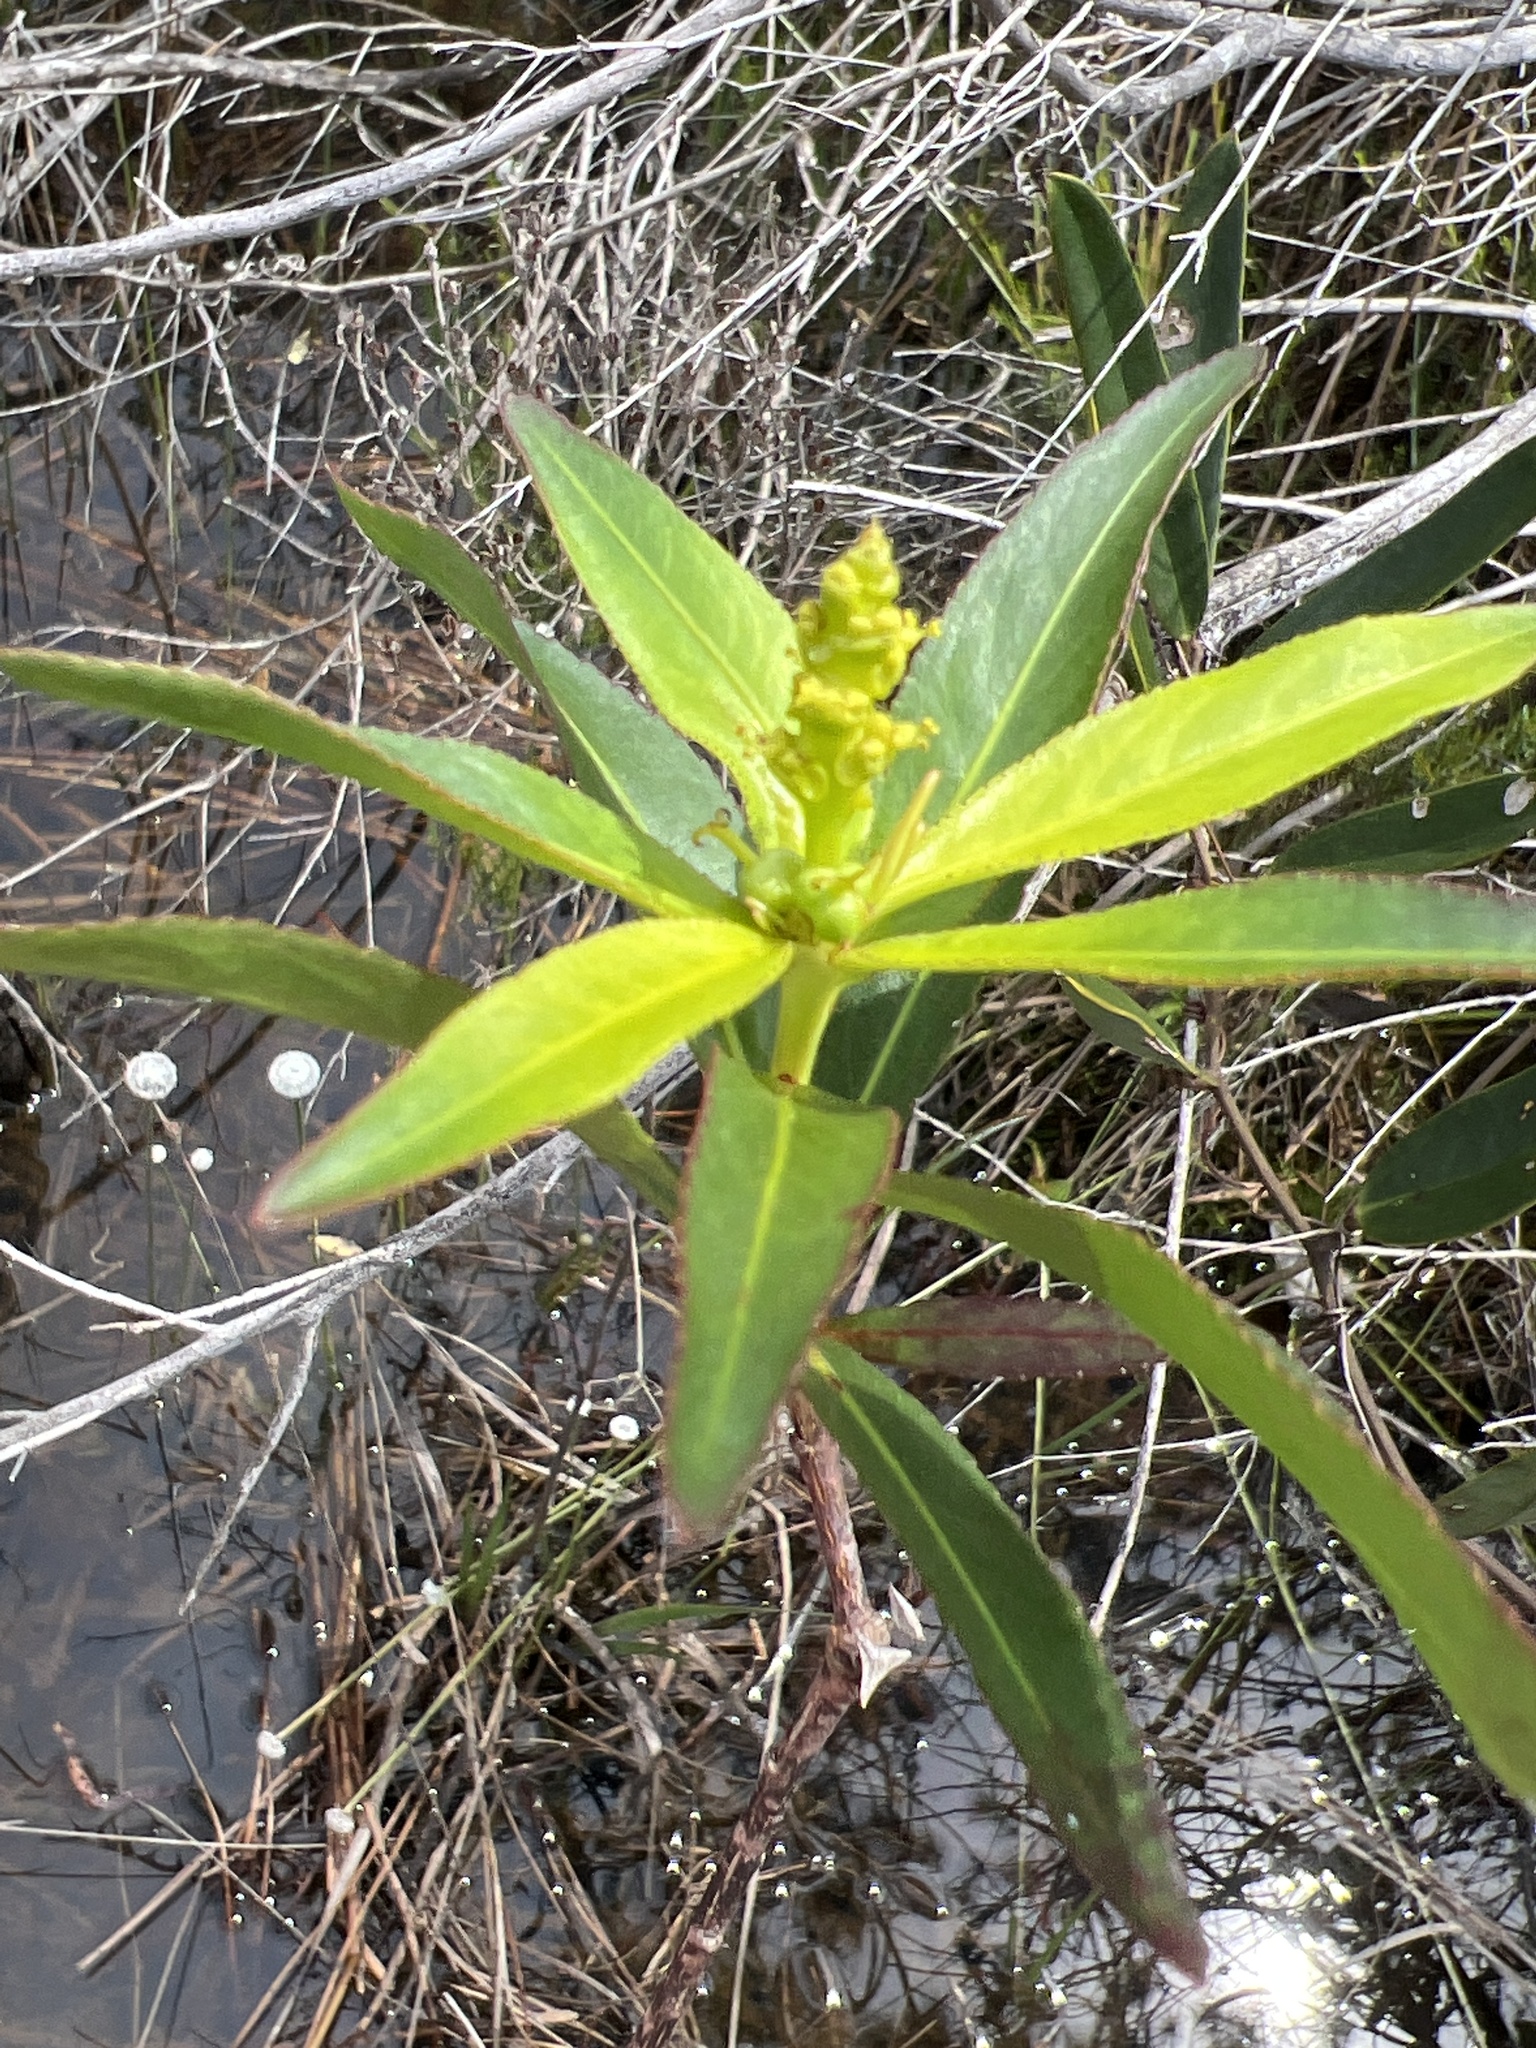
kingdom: Plantae
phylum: Tracheophyta
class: Magnoliopsida
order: Malpighiales
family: Euphorbiaceae
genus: Stillingia
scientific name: Stillingia aquatica
